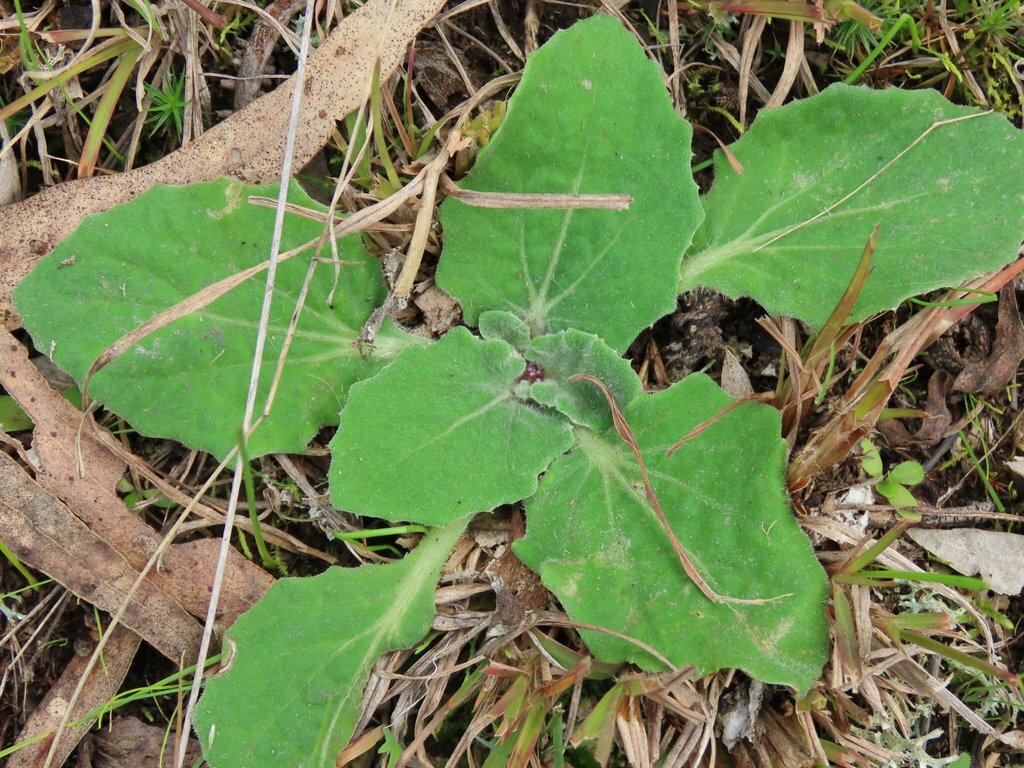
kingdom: Plantae
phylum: Tracheophyta
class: Magnoliopsida
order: Asterales
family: Asteraceae
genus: Cymbonotus
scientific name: Cymbonotus preissianus
